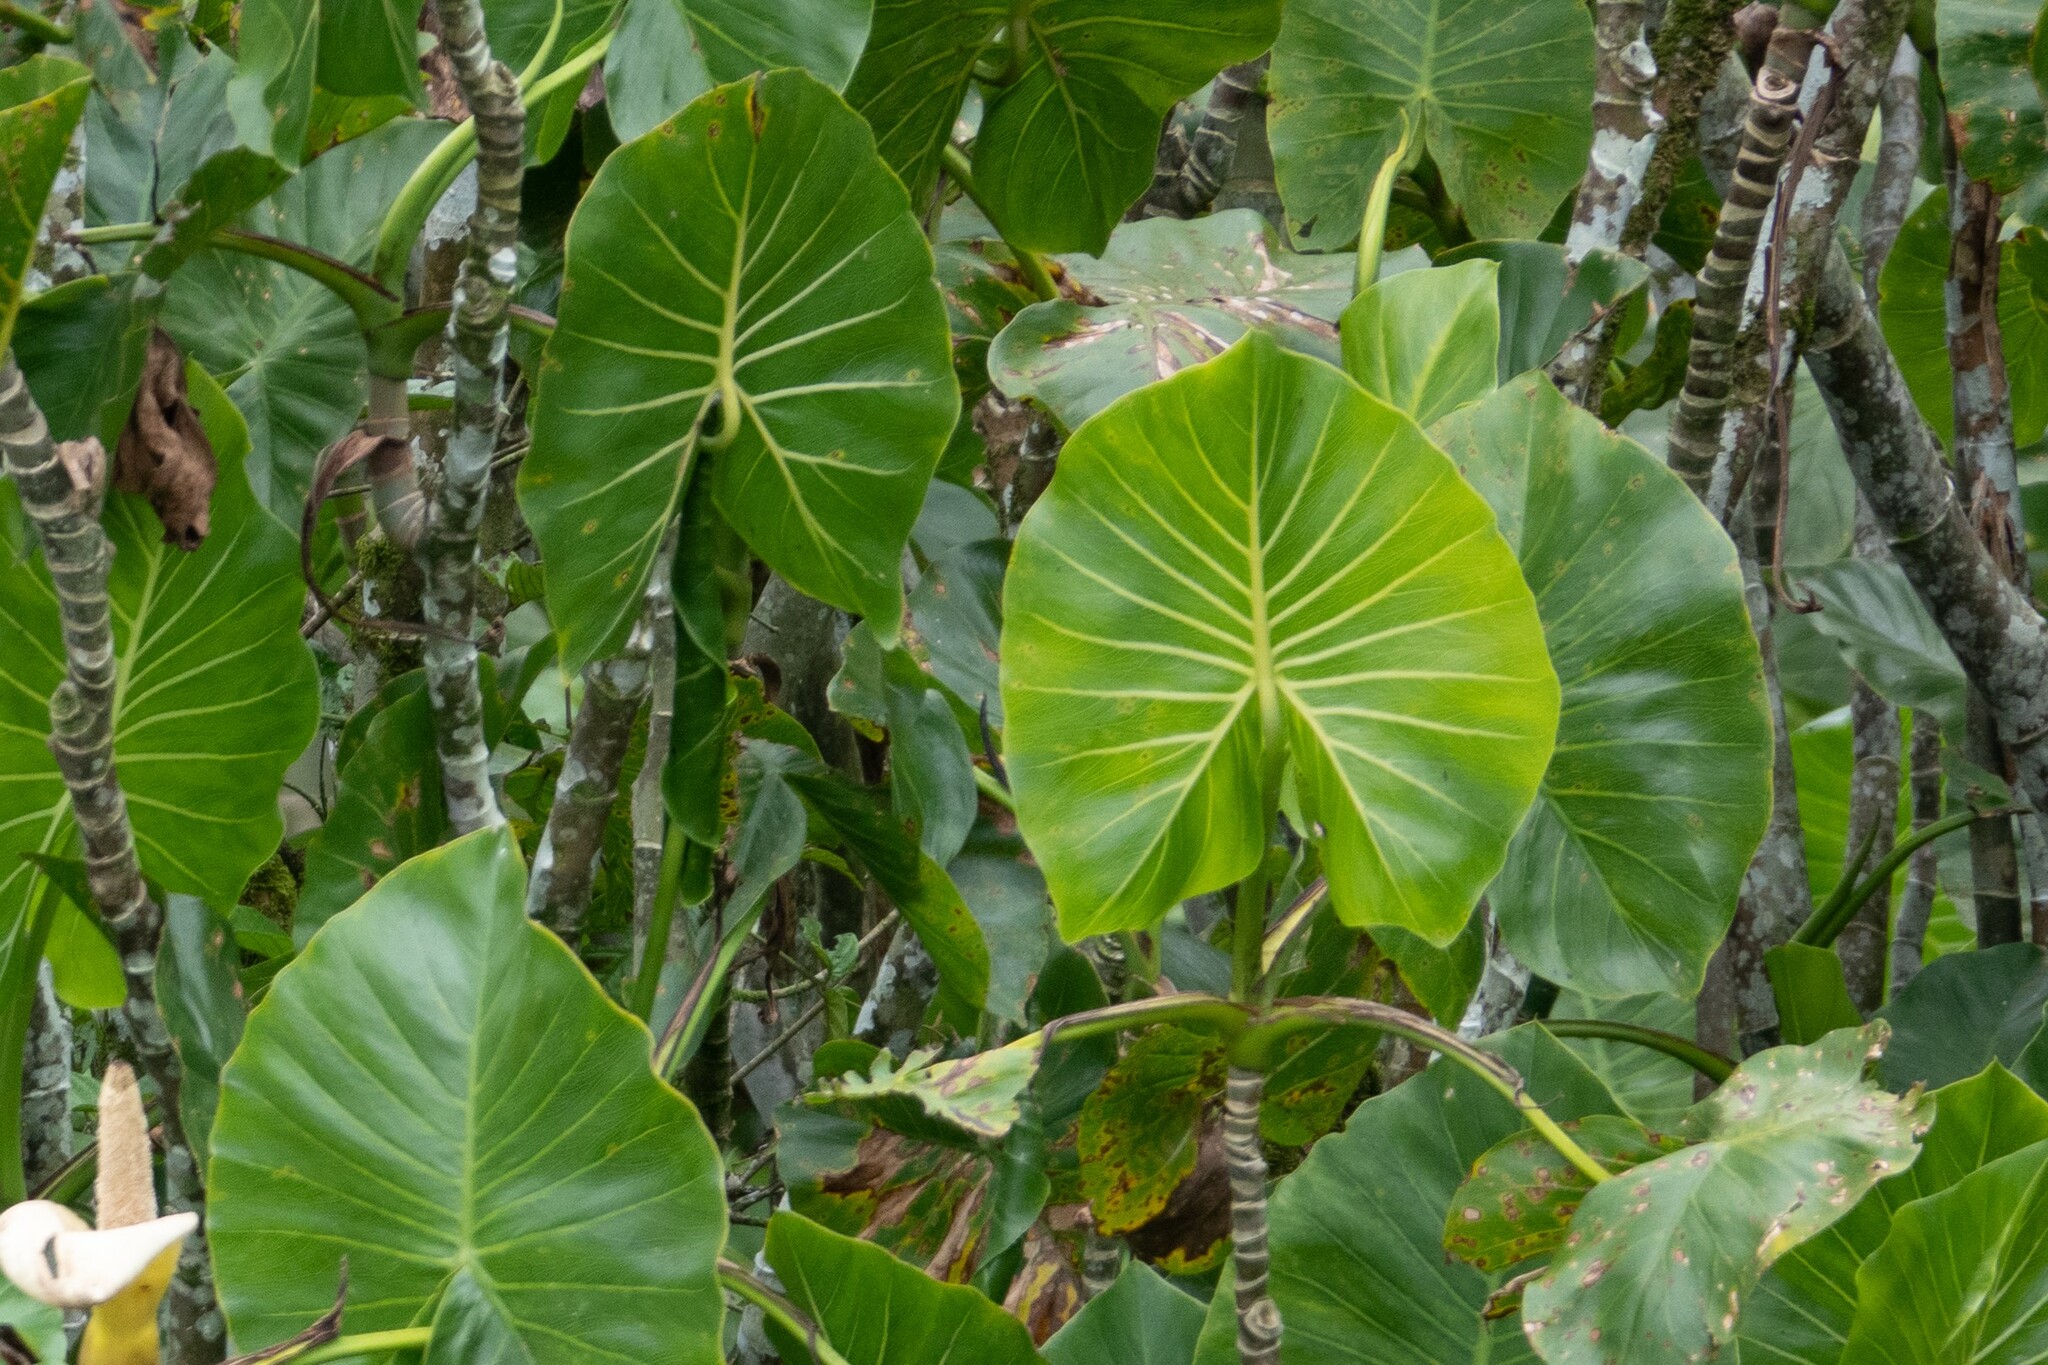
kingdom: Plantae
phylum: Tracheophyta
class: Liliopsida
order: Alismatales
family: Araceae
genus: Montrichardia
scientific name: Montrichardia linifera
